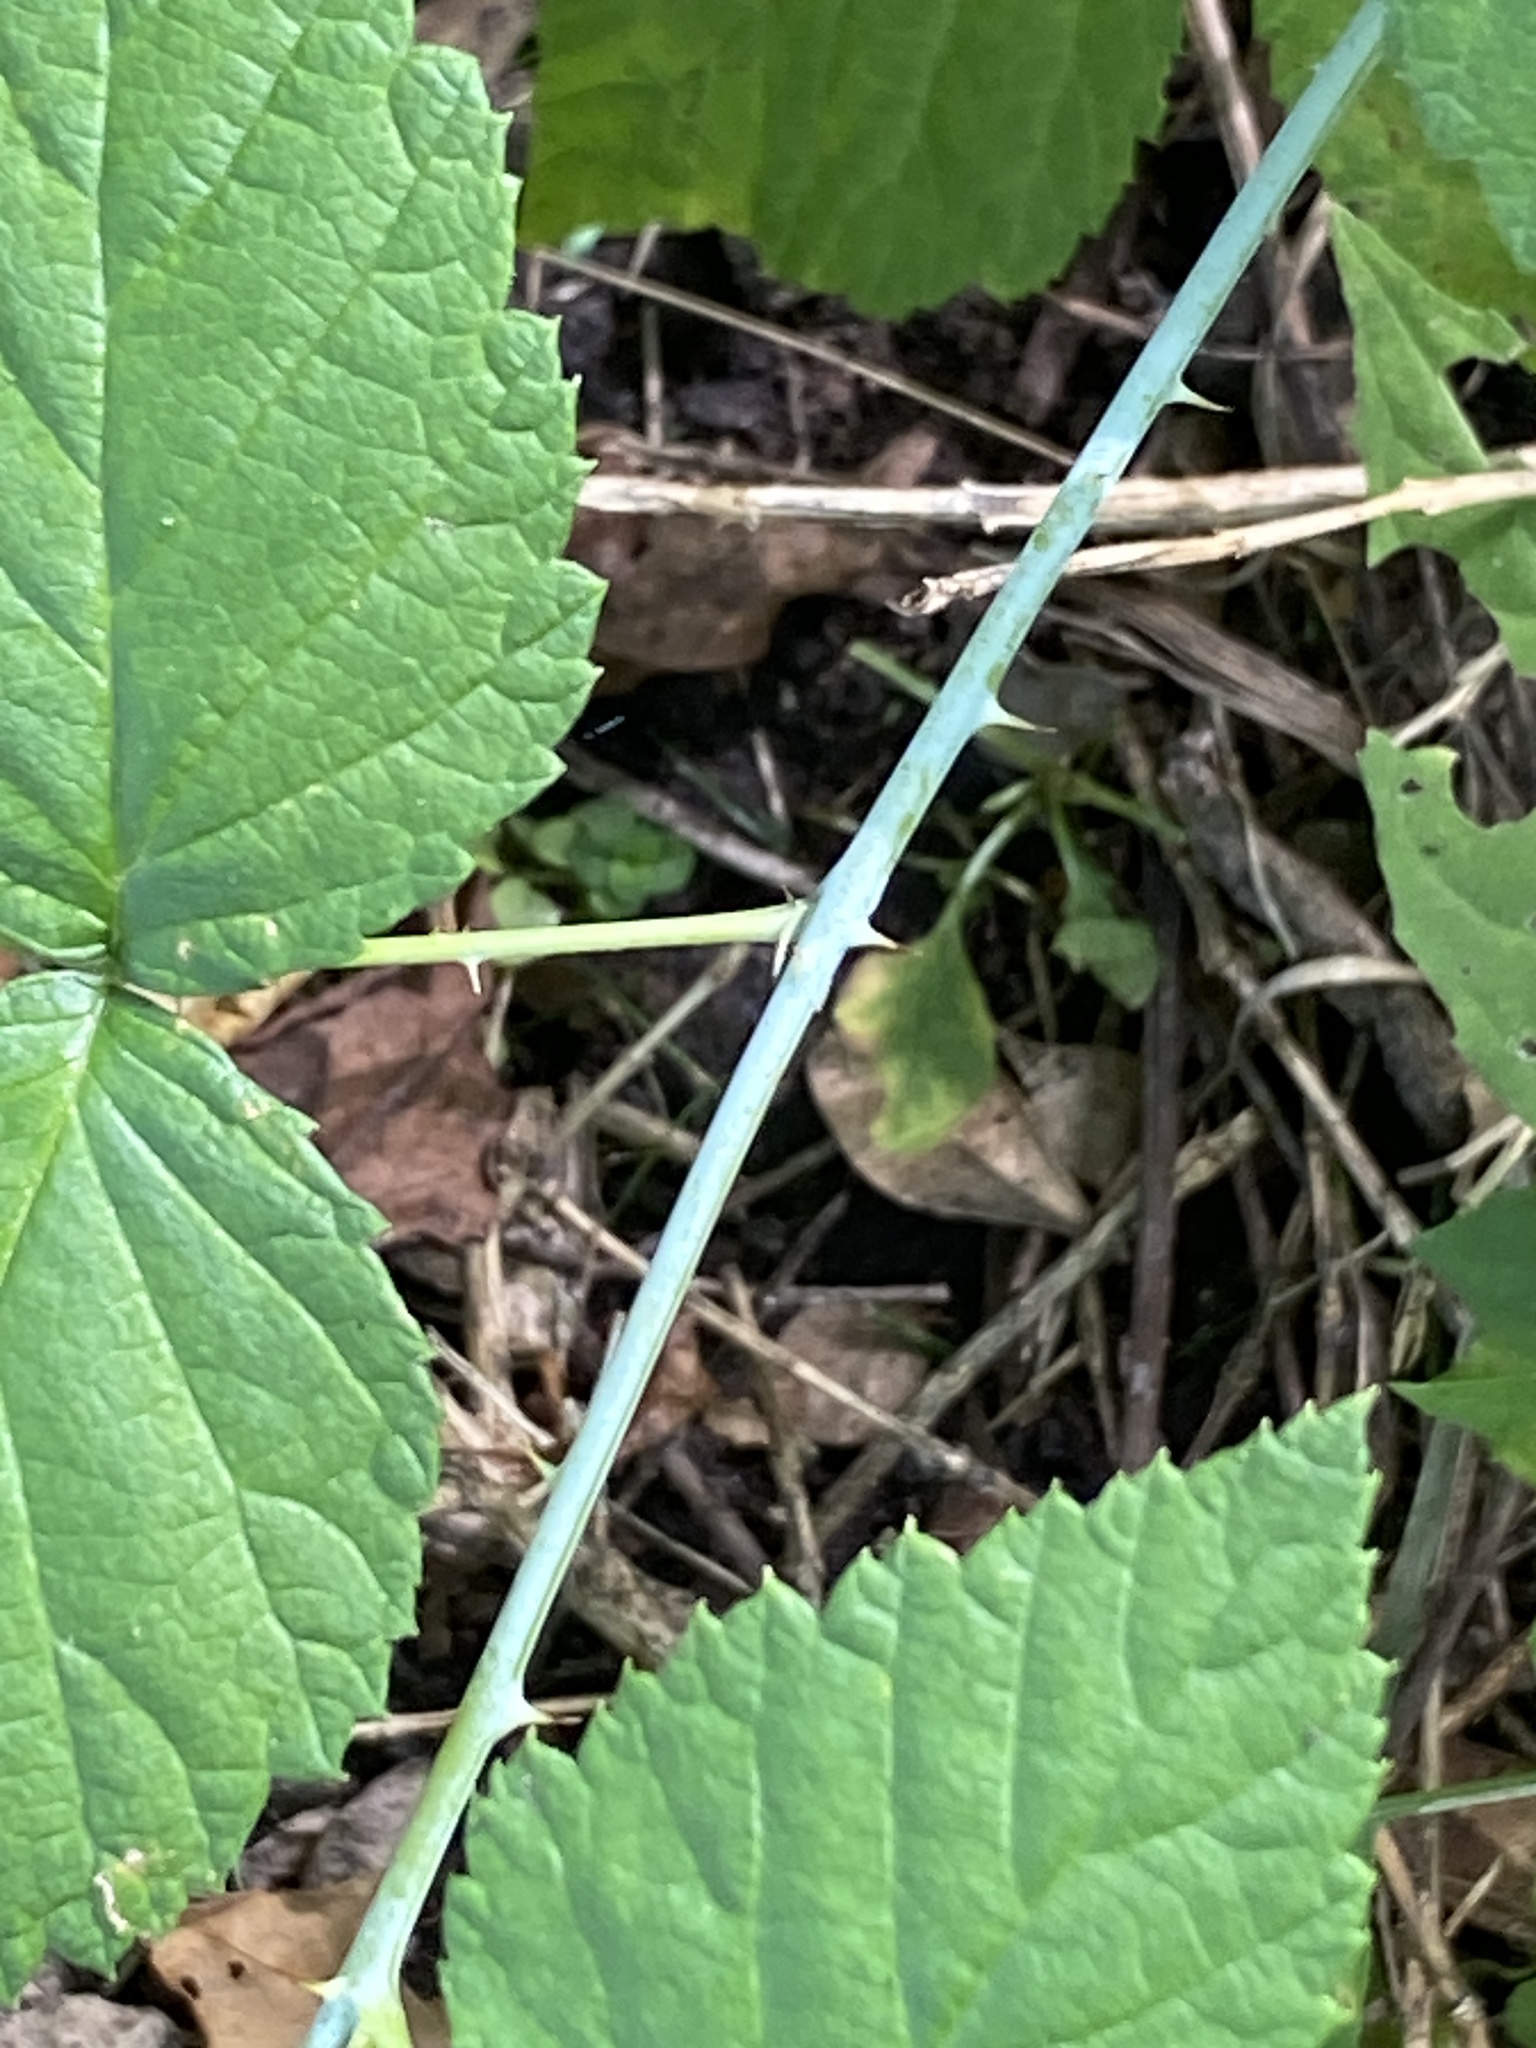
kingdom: Plantae
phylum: Tracheophyta
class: Magnoliopsida
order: Rosales
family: Rosaceae
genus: Rubus
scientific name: Rubus occidentalis
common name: Black raspberry
